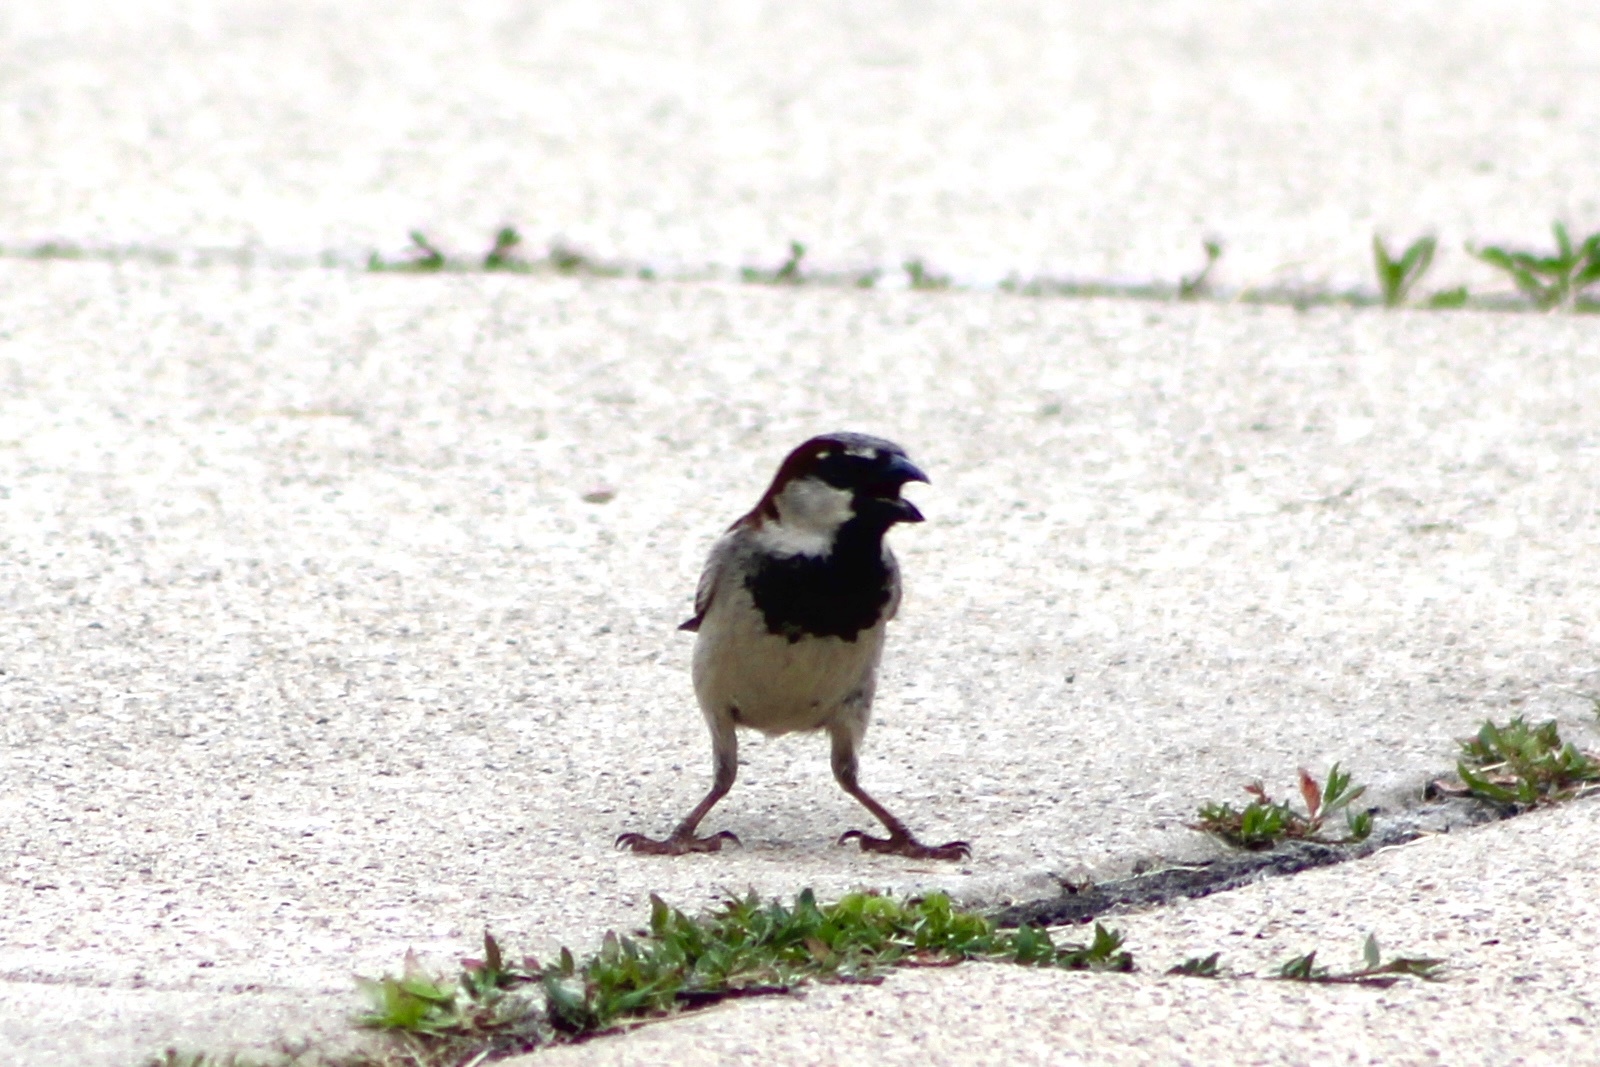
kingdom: Animalia
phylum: Chordata
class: Aves
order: Passeriformes
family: Passeridae
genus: Passer
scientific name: Passer domesticus
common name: House sparrow
